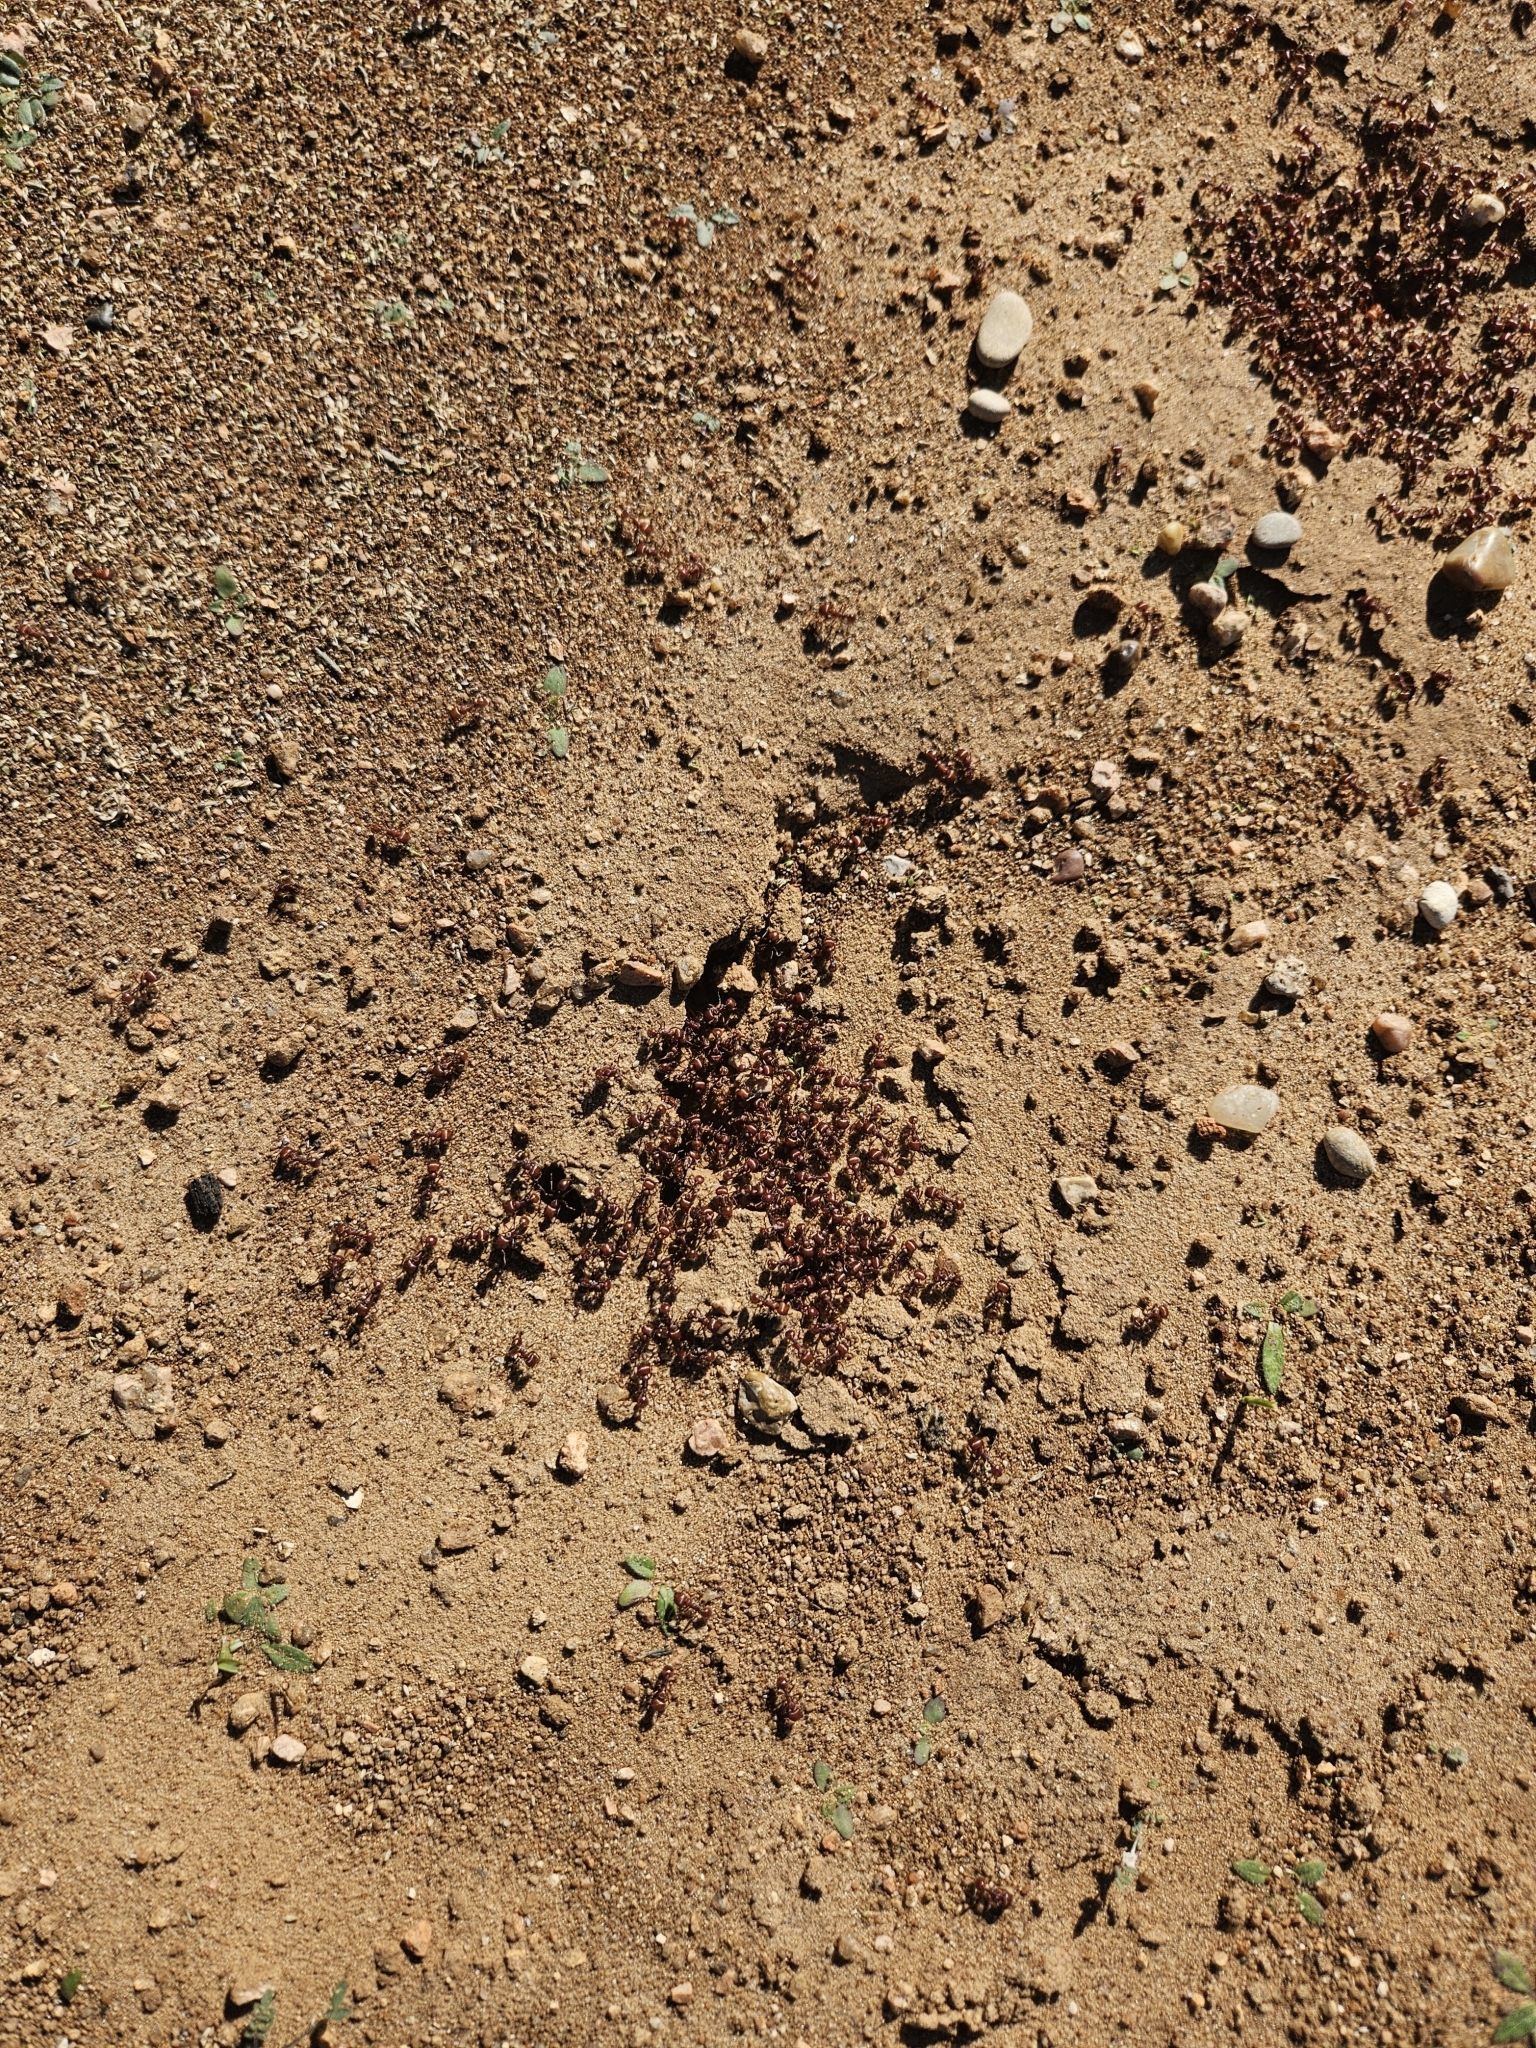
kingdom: Animalia
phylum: Arthropoda
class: Insecta
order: Hymenoptera
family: Formicidae
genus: Pogonomyrmex
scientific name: Pogonomyrmex barbatus
